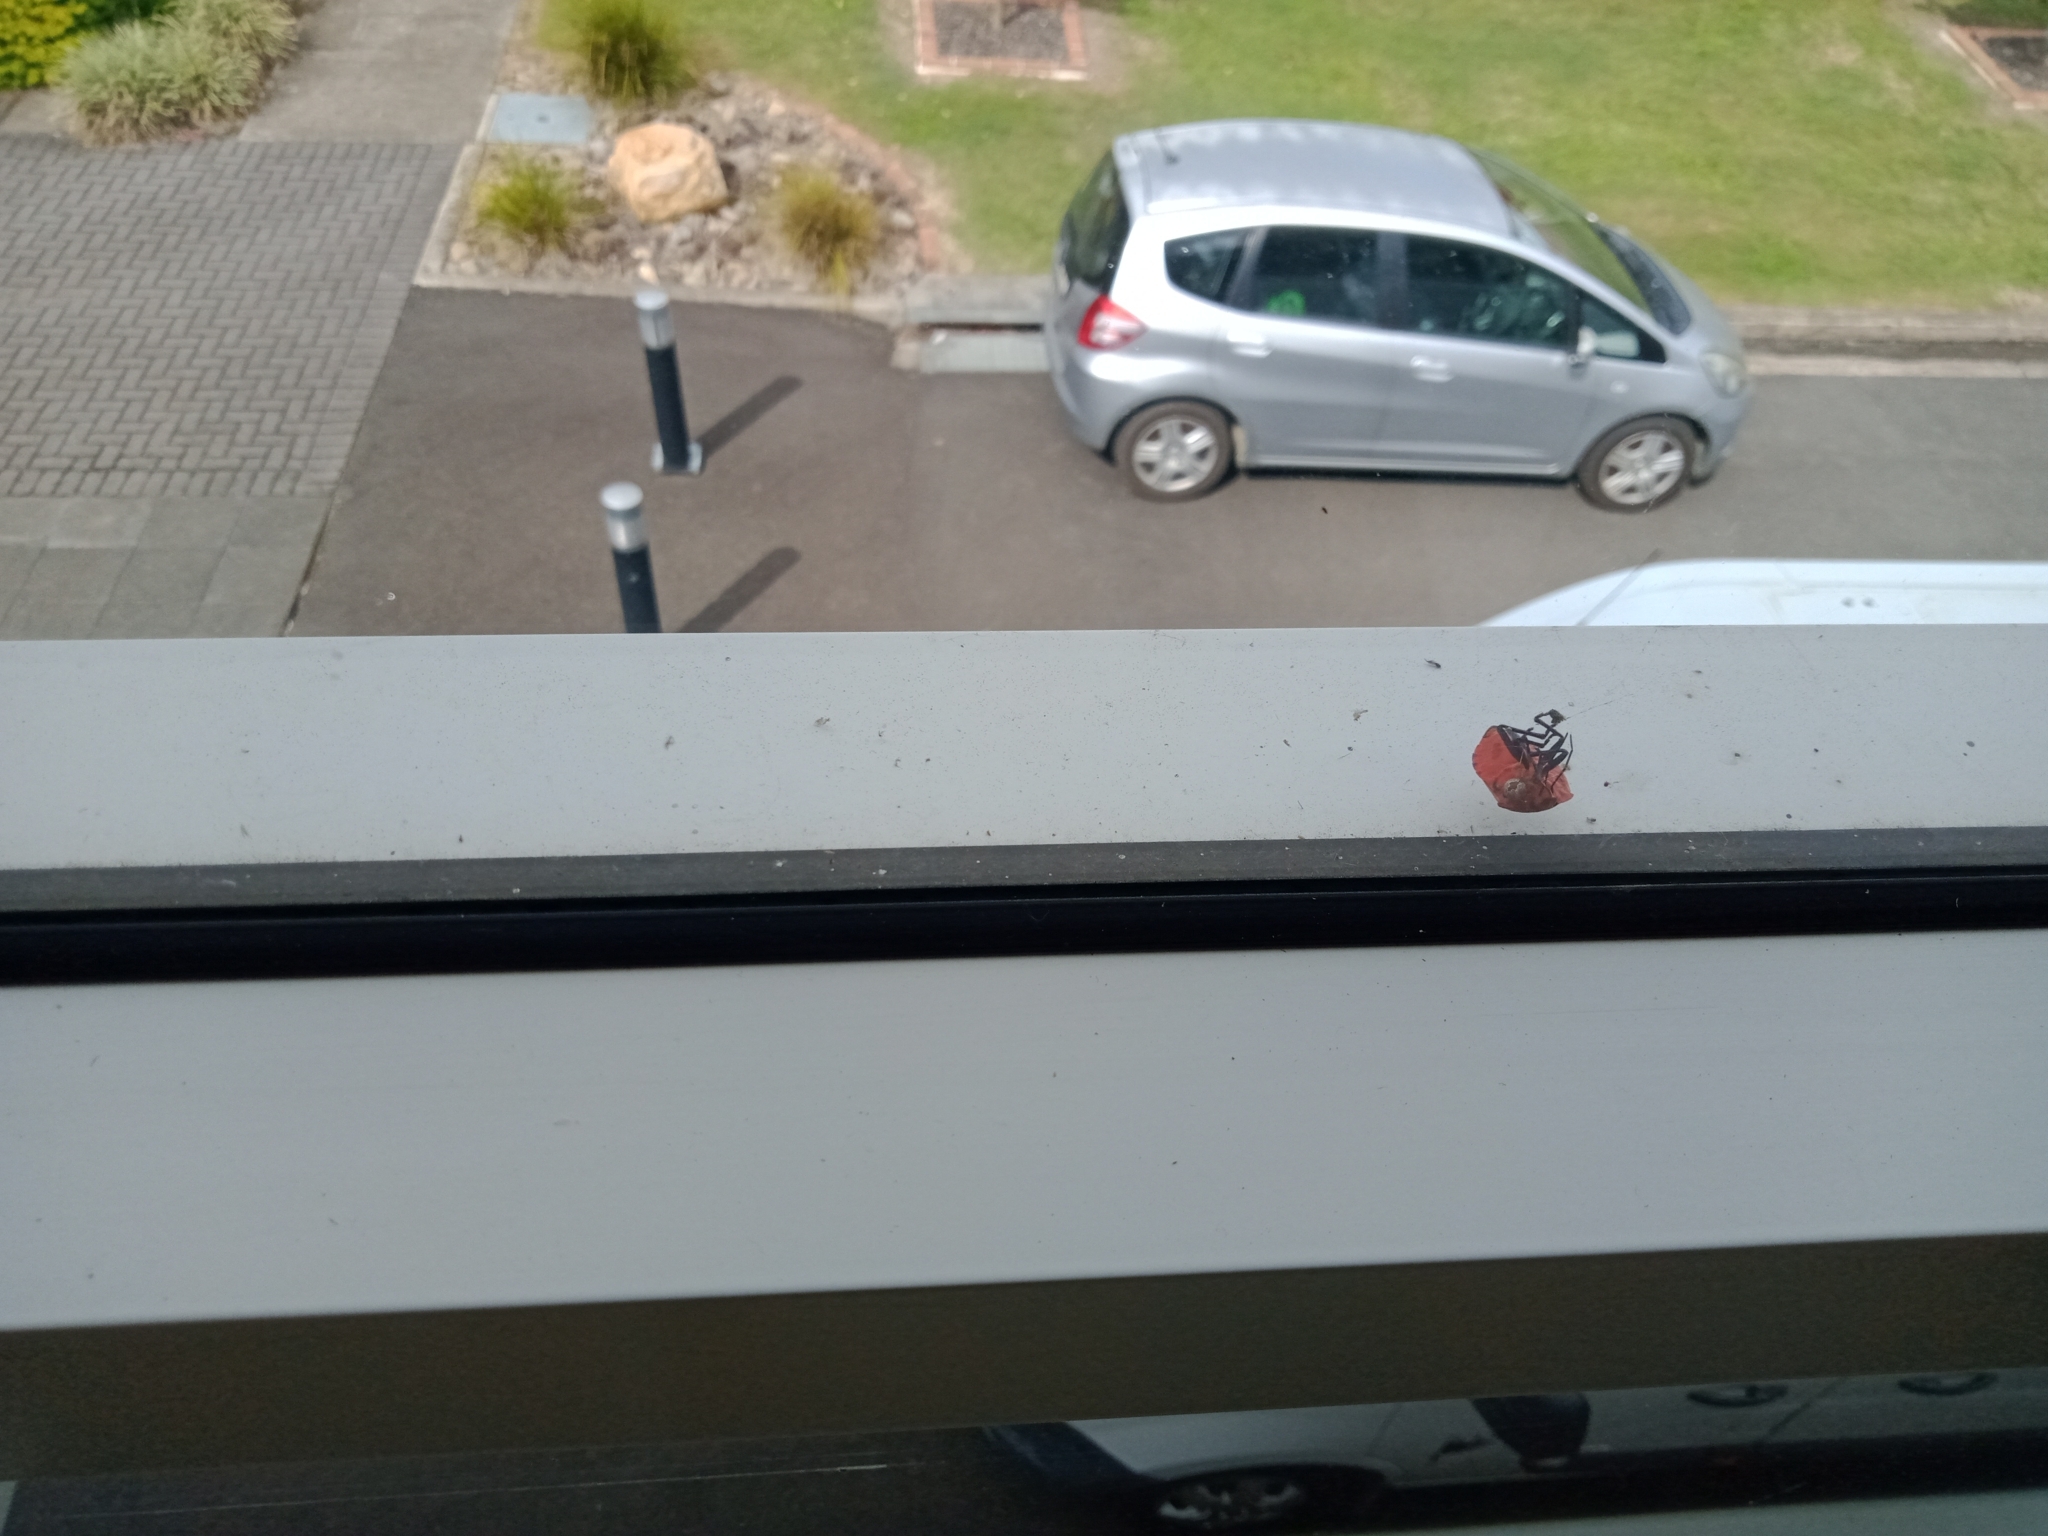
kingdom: Animalia
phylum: Arthropoda
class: Insecta
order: Hemiptera
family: Scutelleridae
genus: Tectocoris
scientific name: Tectocoris diophthalmus
